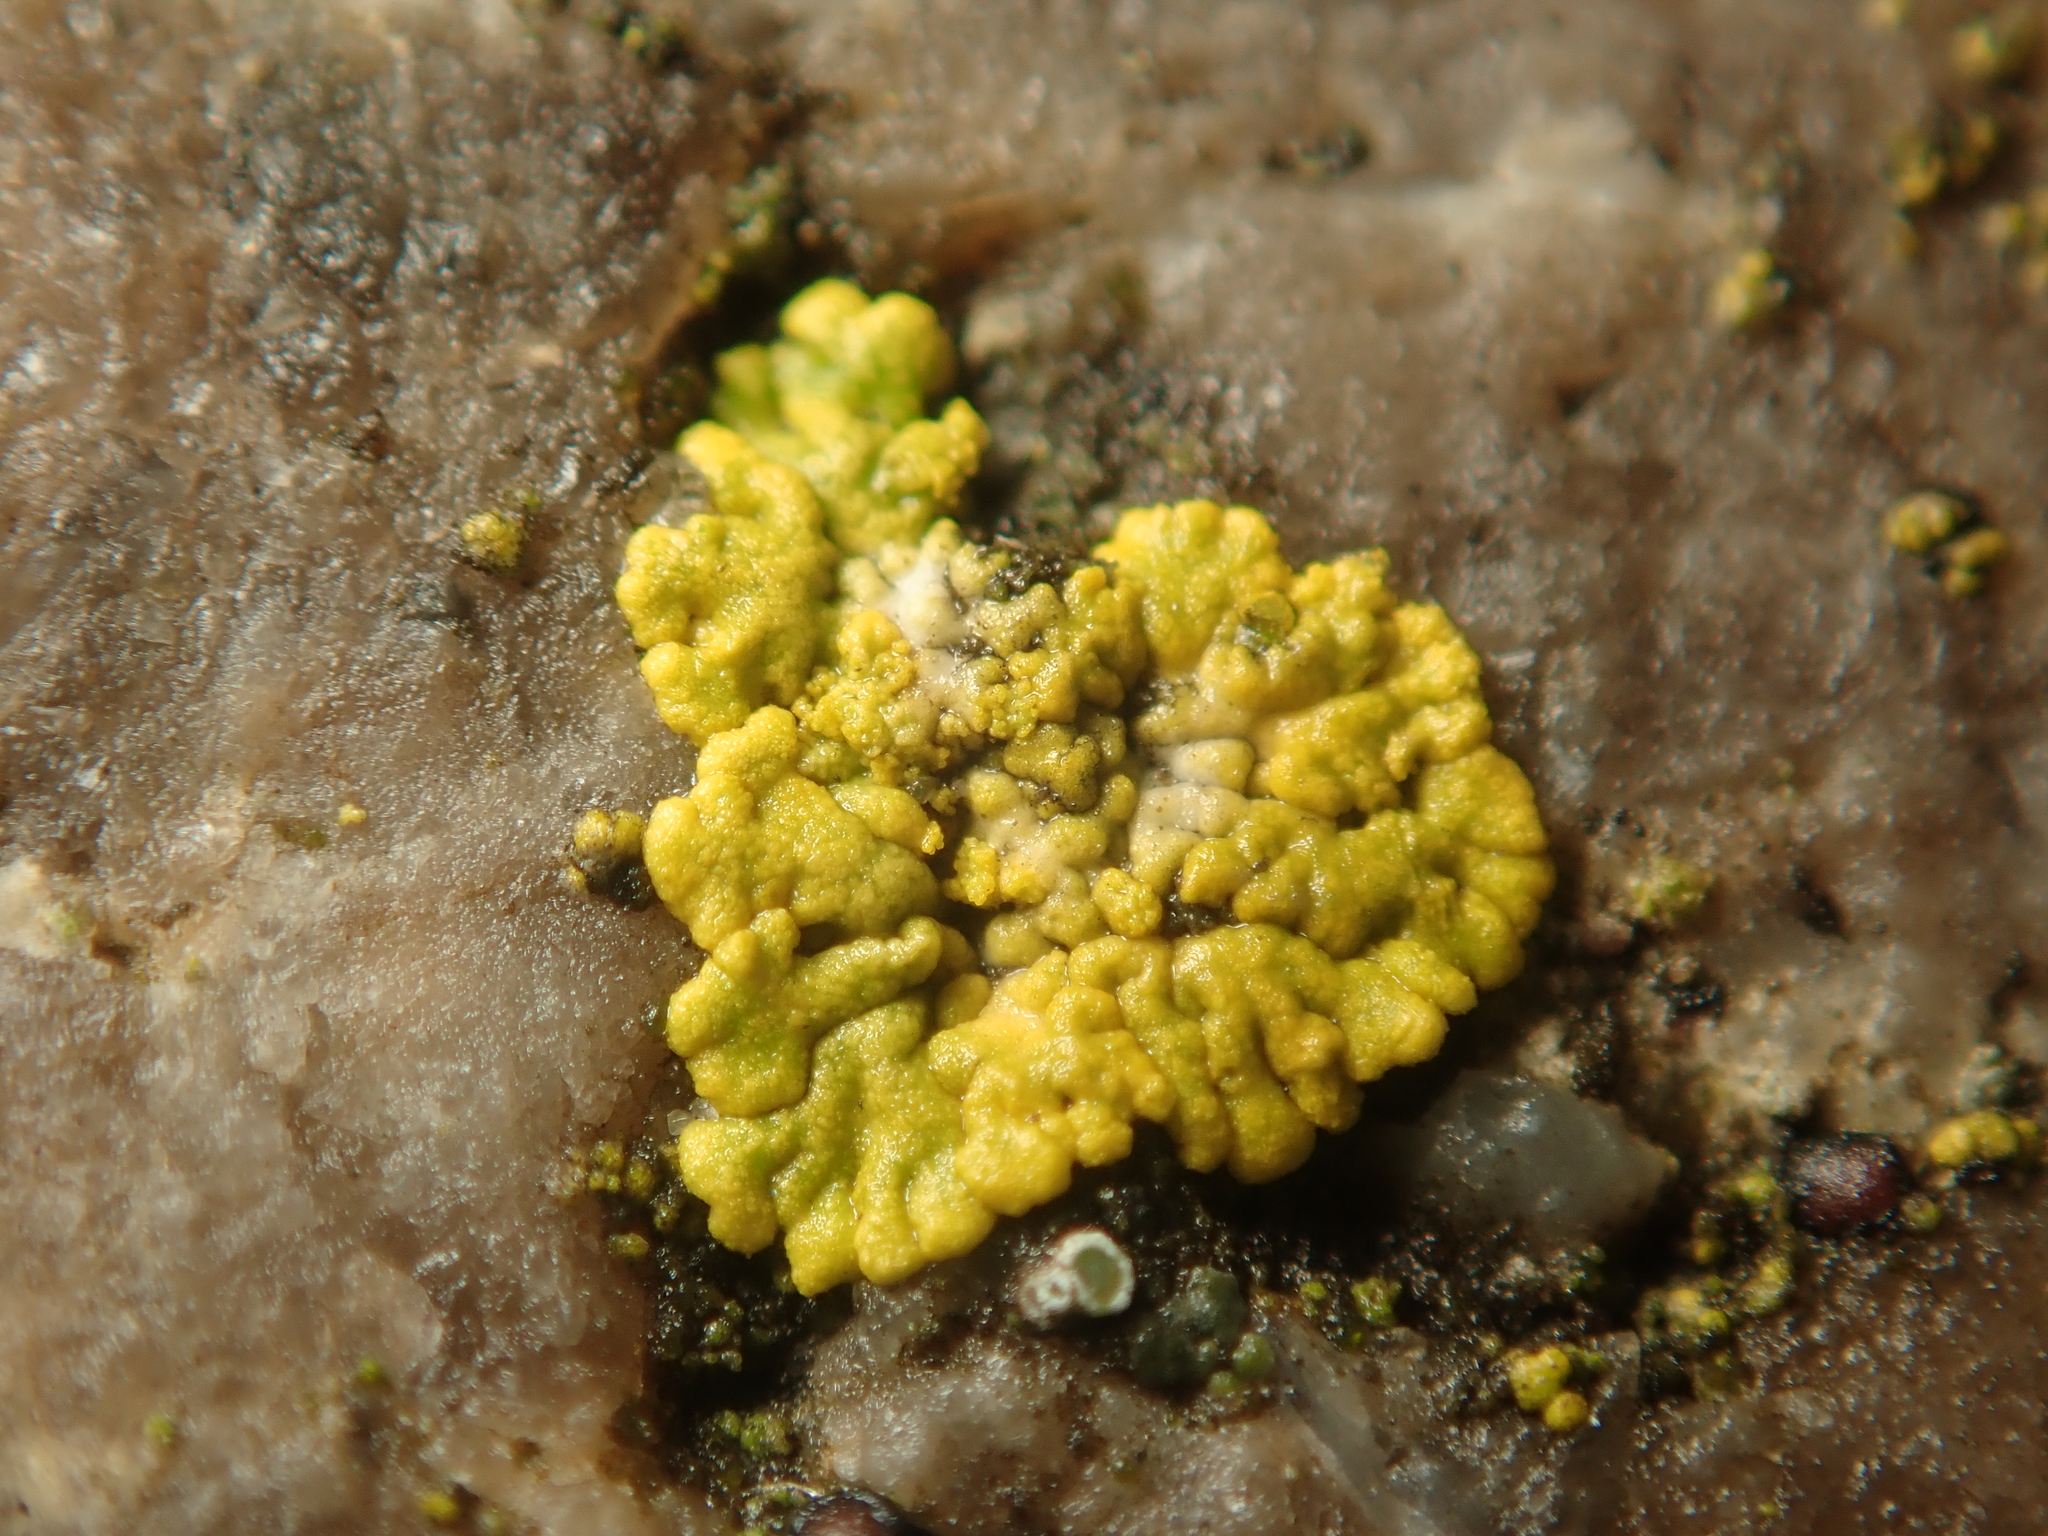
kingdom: Fungi
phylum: Ascomycota
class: Lecanoromycetes
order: Teloschistales
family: Teloschistaceae
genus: Calogaya
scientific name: Calogaya decipiens
